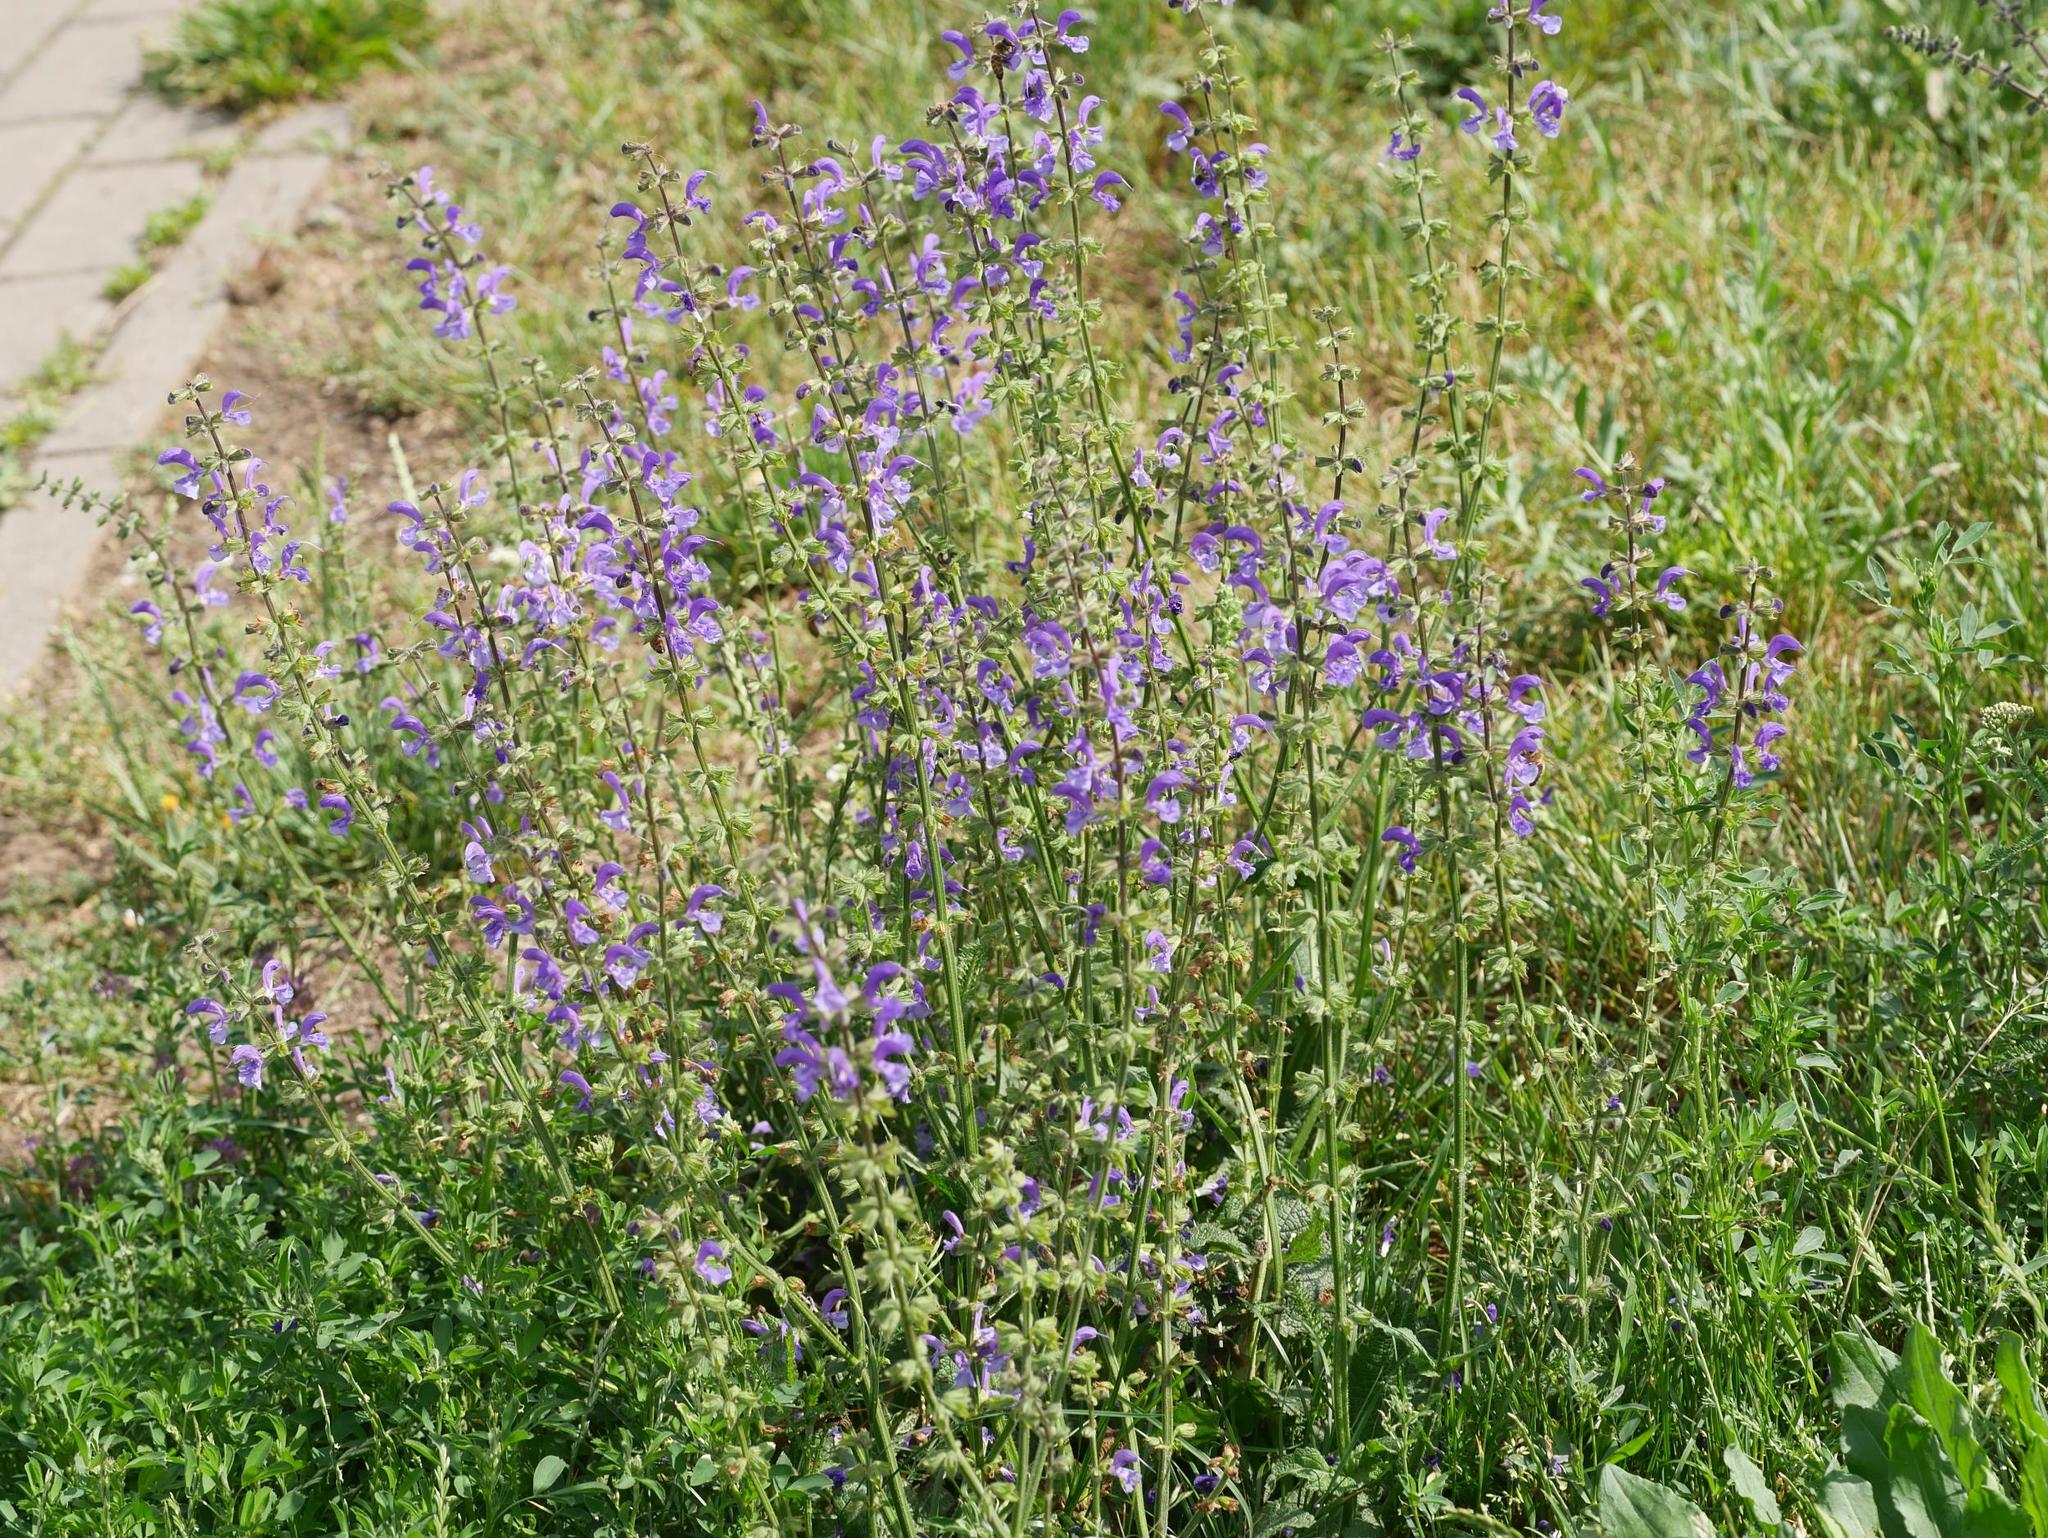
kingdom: Plantae
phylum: Tracheophyta
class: Magnoliopsida
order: Lamiales
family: Lamiaceae
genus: Salvia
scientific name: Salvia pratensis
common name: Meadow sage
